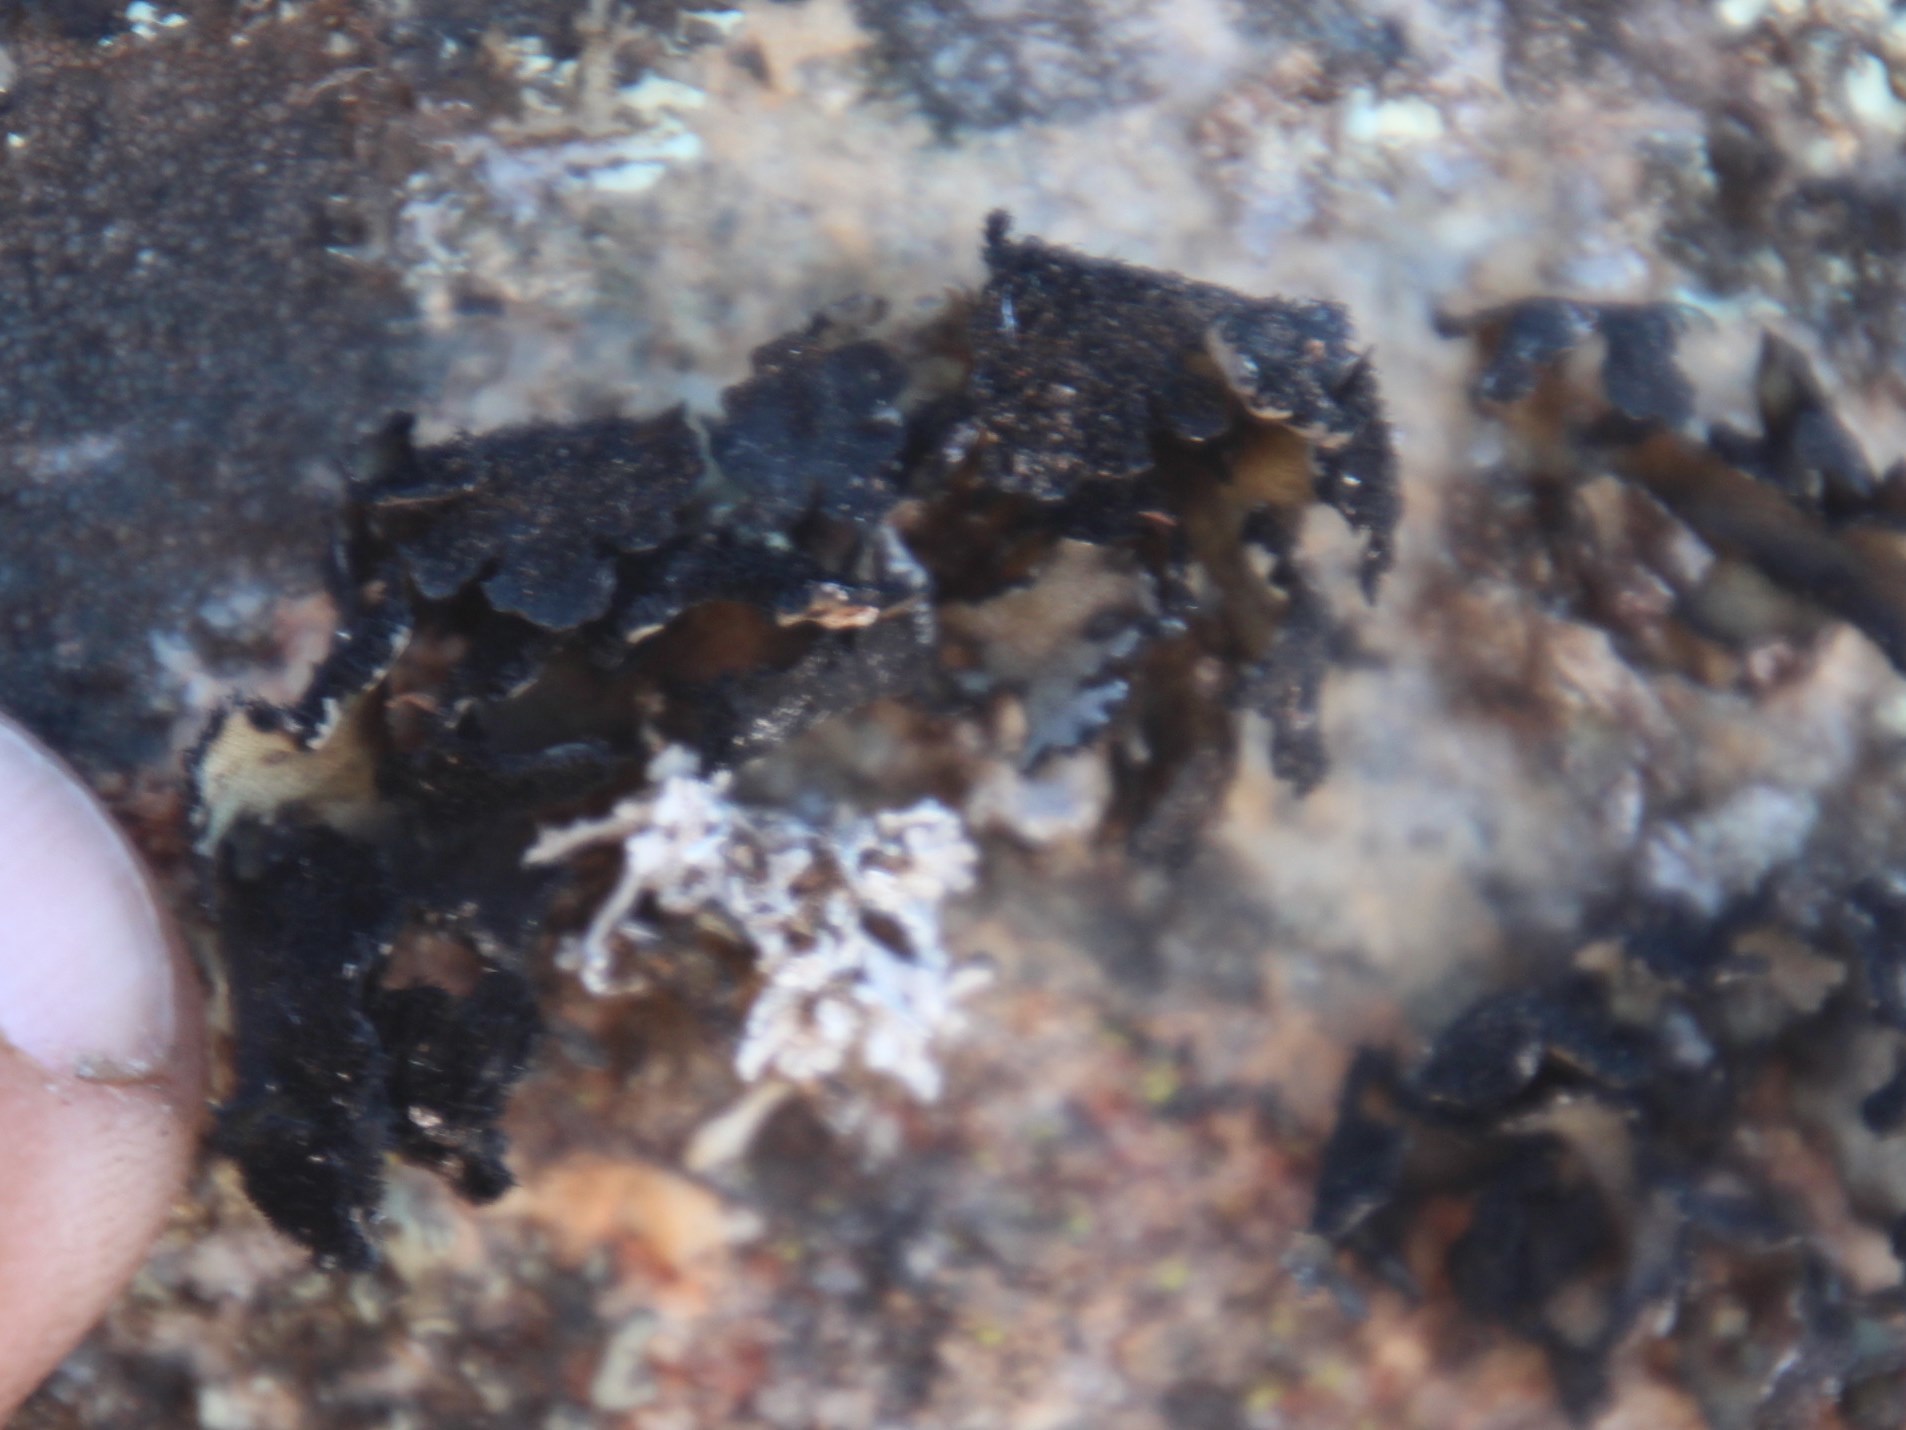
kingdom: Fungi
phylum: Ascomycota
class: Lecanoromycetes
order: Lecanorales
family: Parmeliaceae
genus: Xanthoparmelia
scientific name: Xanthoparmelia hottentotta
